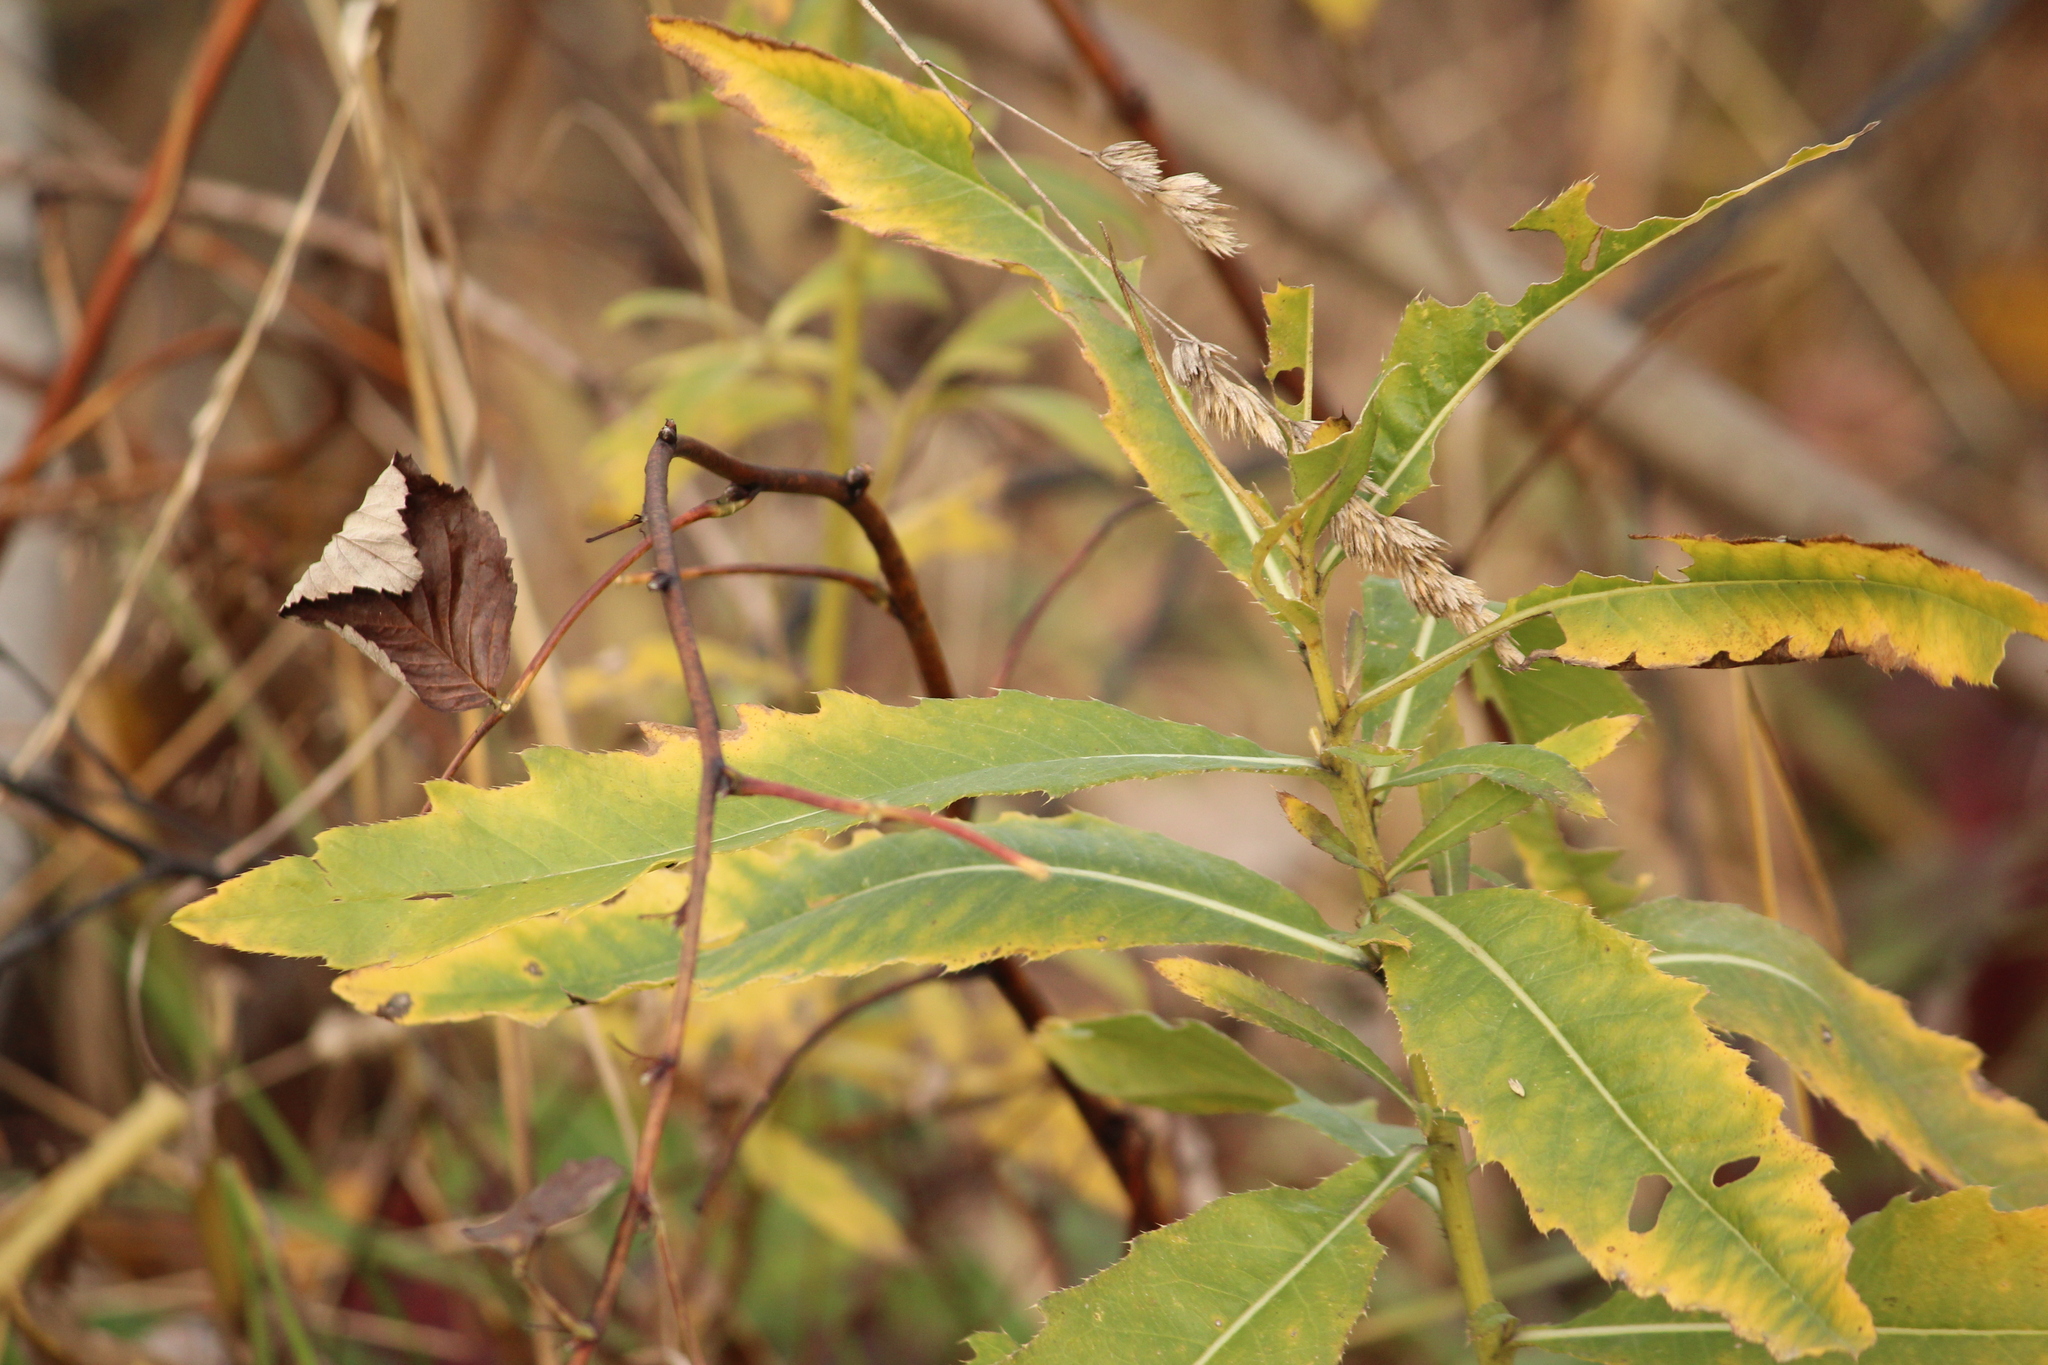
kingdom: Plantae
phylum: Tracheophyta
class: Magnoliopsida
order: Asterales
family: Asteraceae
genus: Cirsium
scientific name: Cirsium arvense
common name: Creeping thistle
